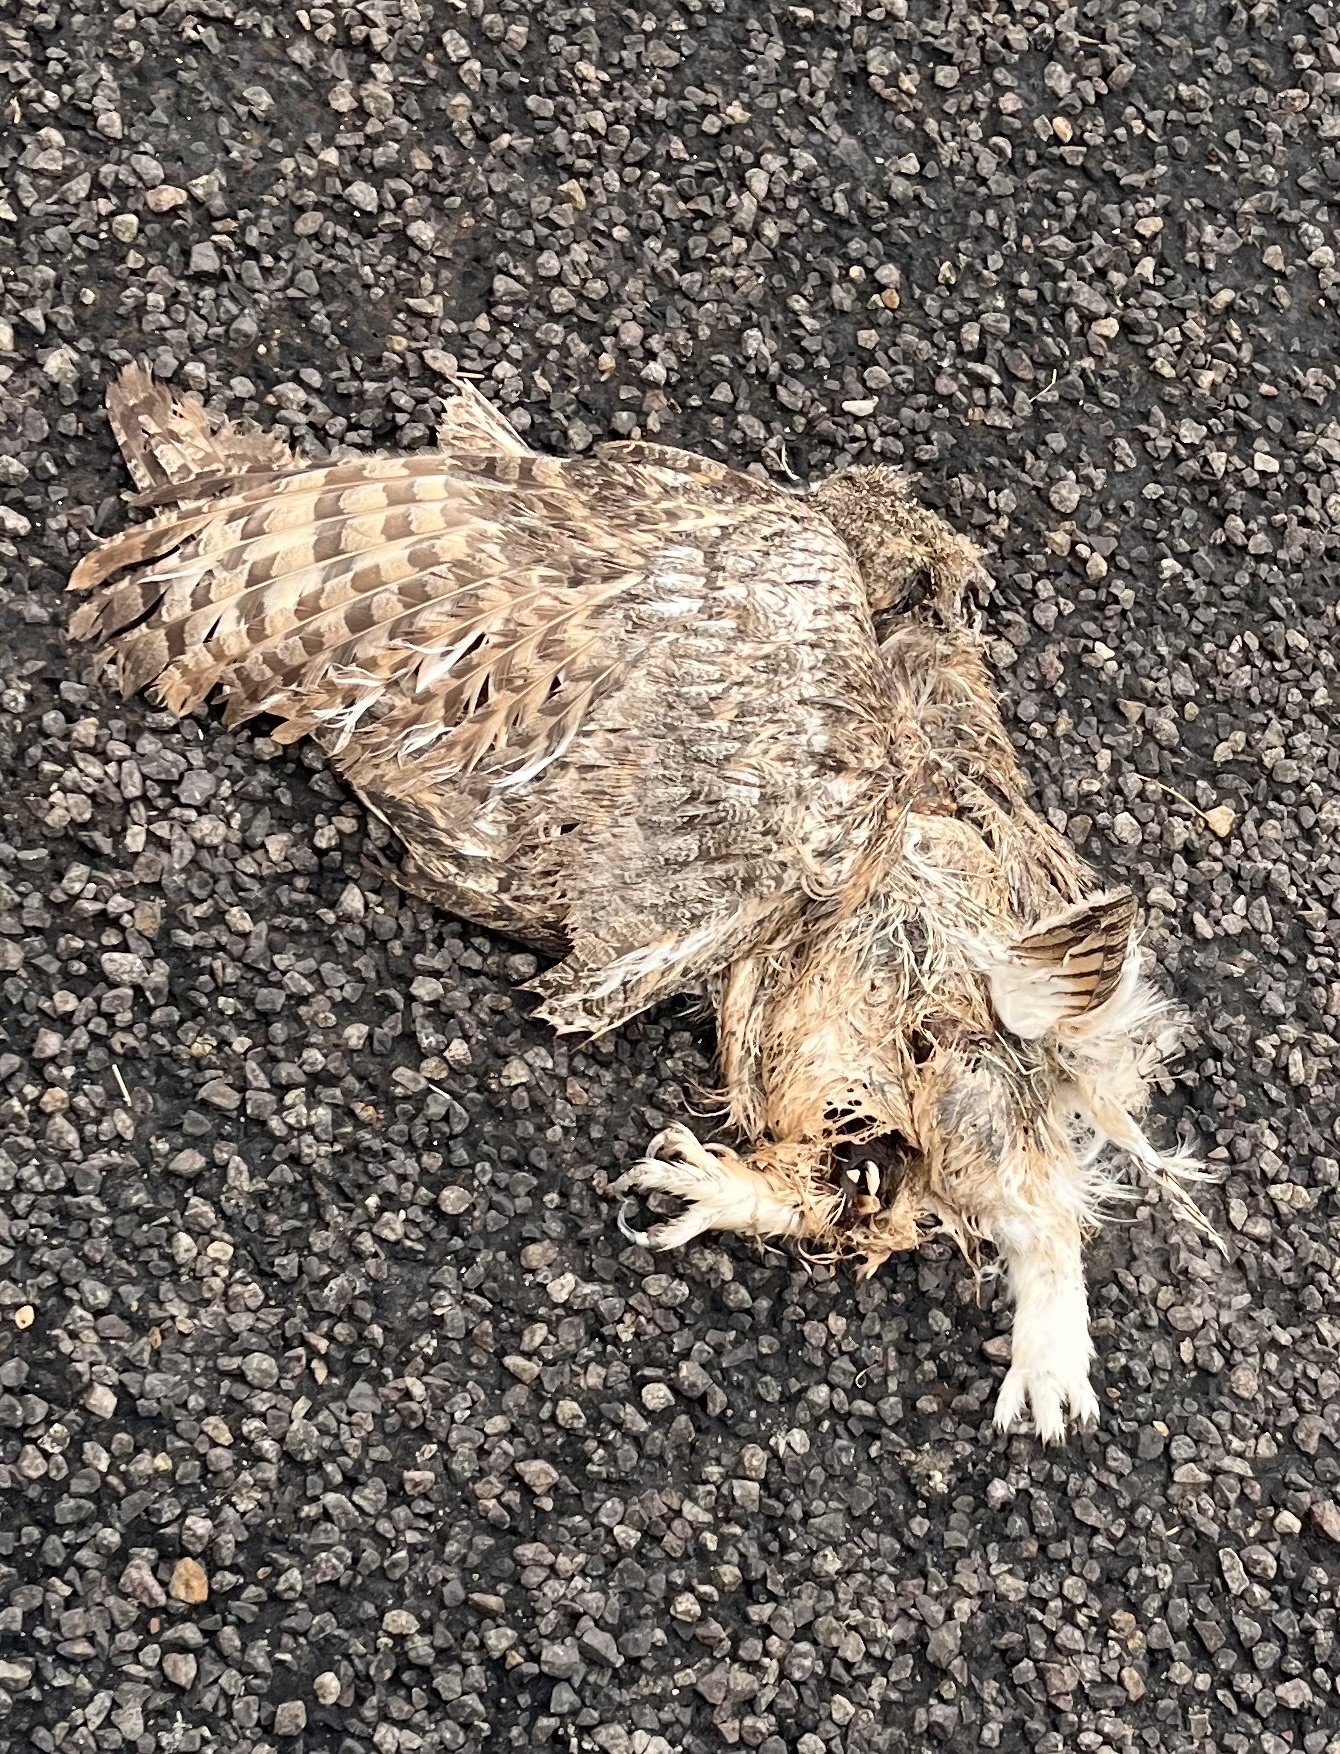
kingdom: Animalia
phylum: Chordata
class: Aves
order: Strigiformes
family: Strigidae
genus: Bubo
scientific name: Bubo virginianus
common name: Great horned owl
